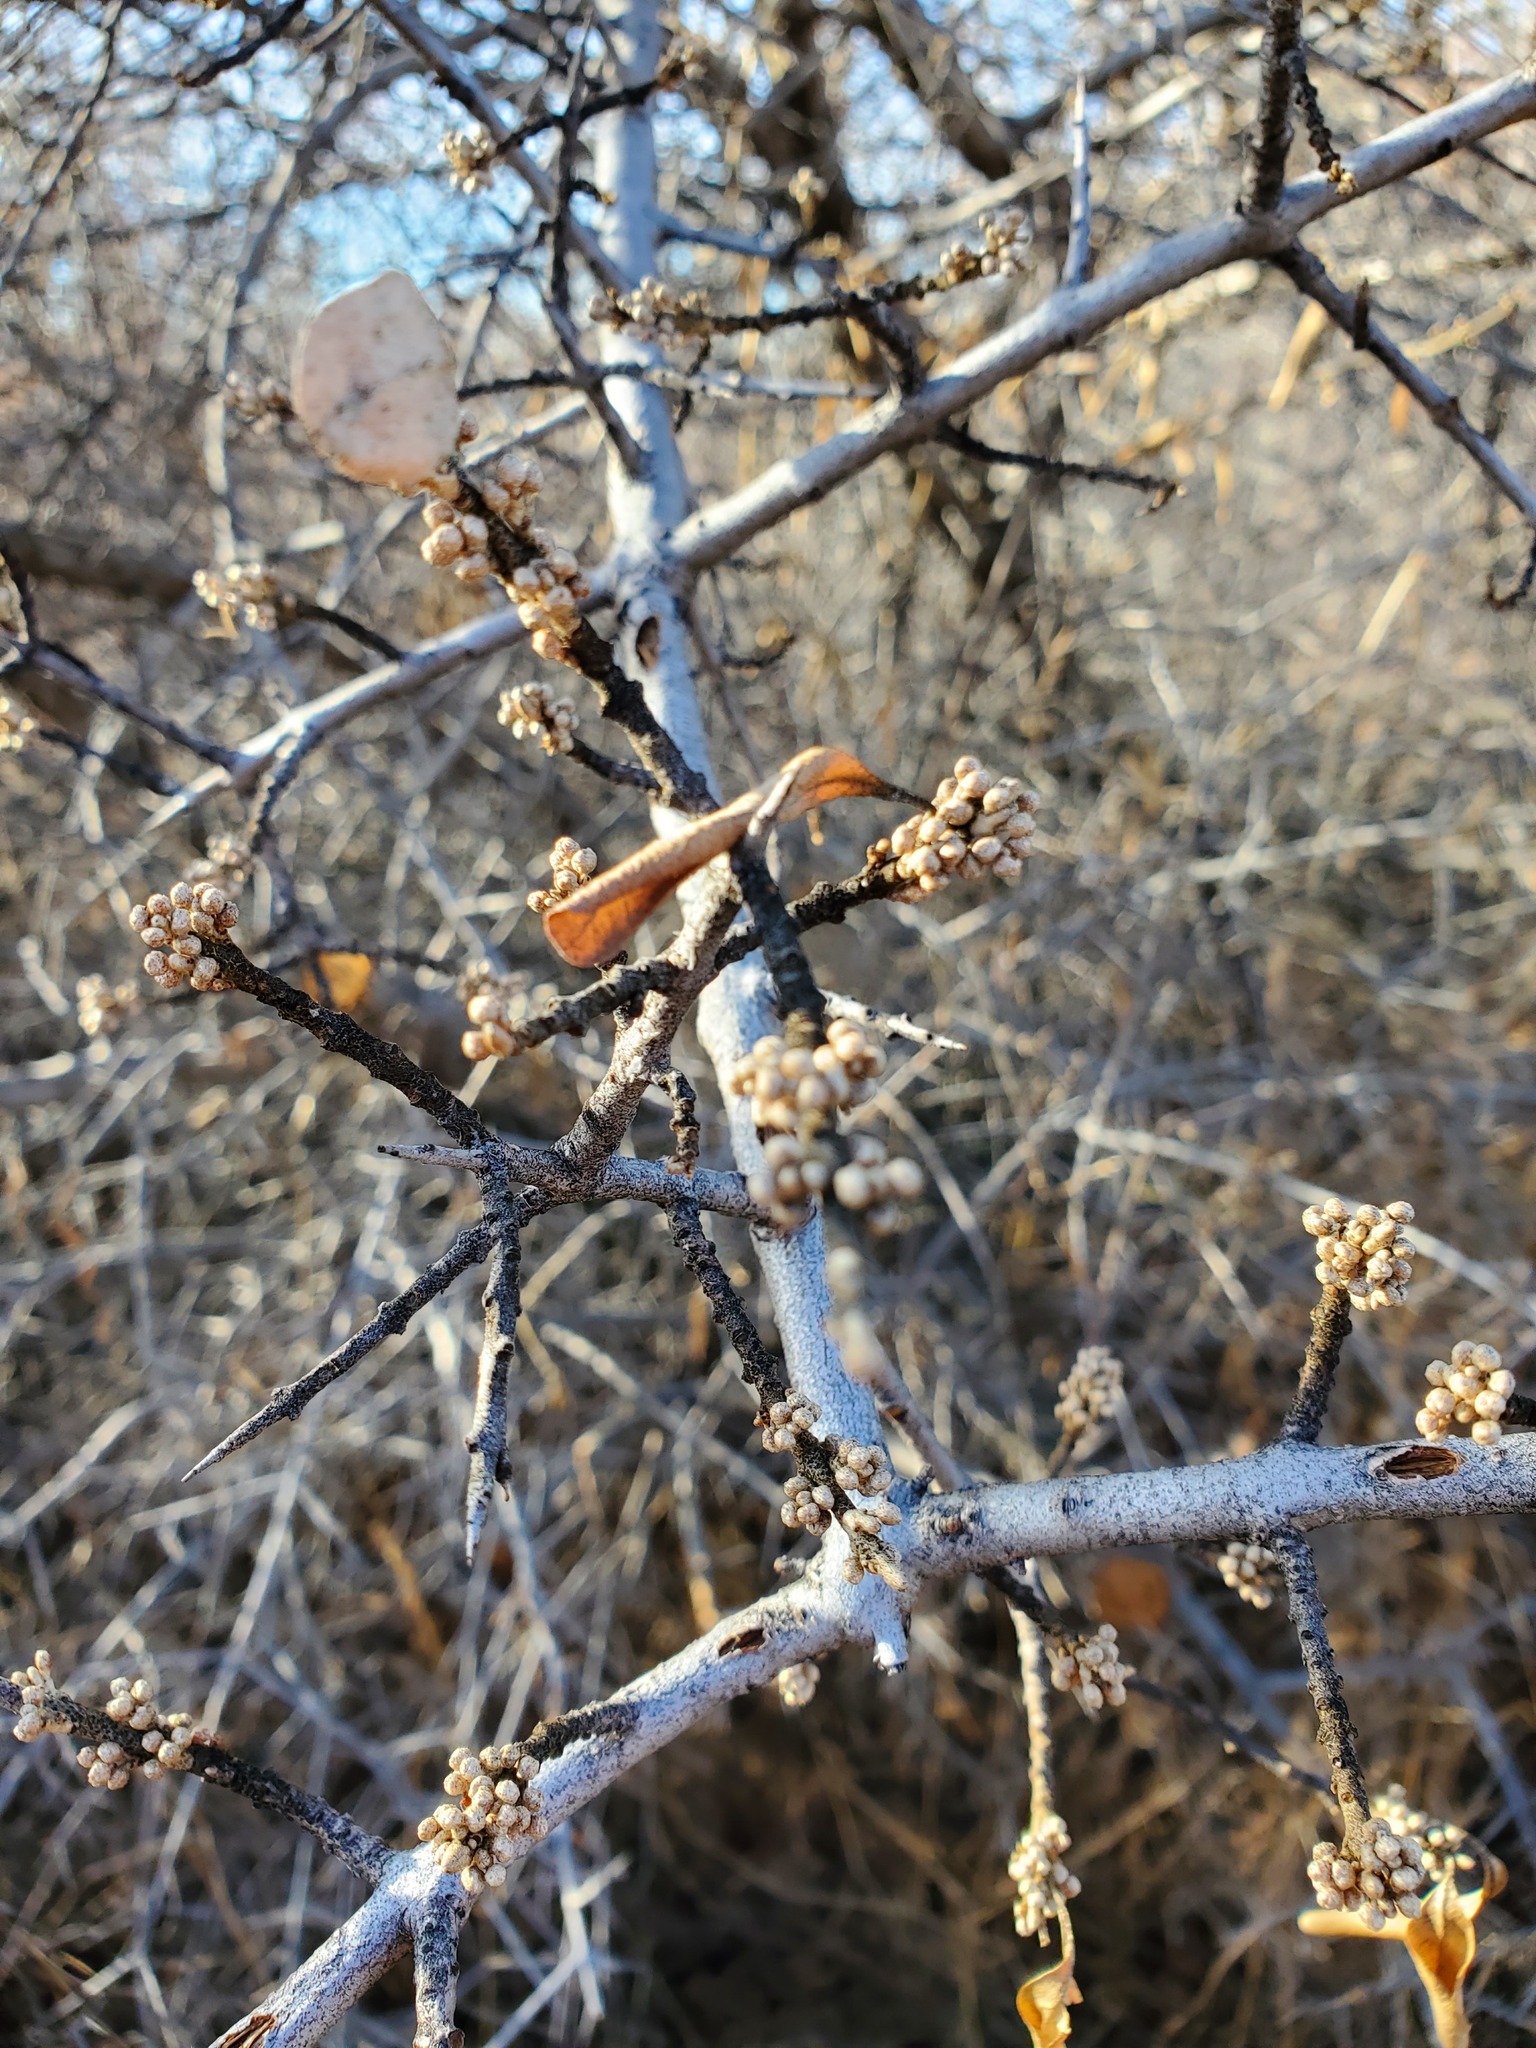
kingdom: Plantae
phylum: Tracheophyta
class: Magnoliopsida
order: Rosales
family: Elaeagnaceae
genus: Shepherdia
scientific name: Shepherdia argentea
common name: Silver buffaloberry
